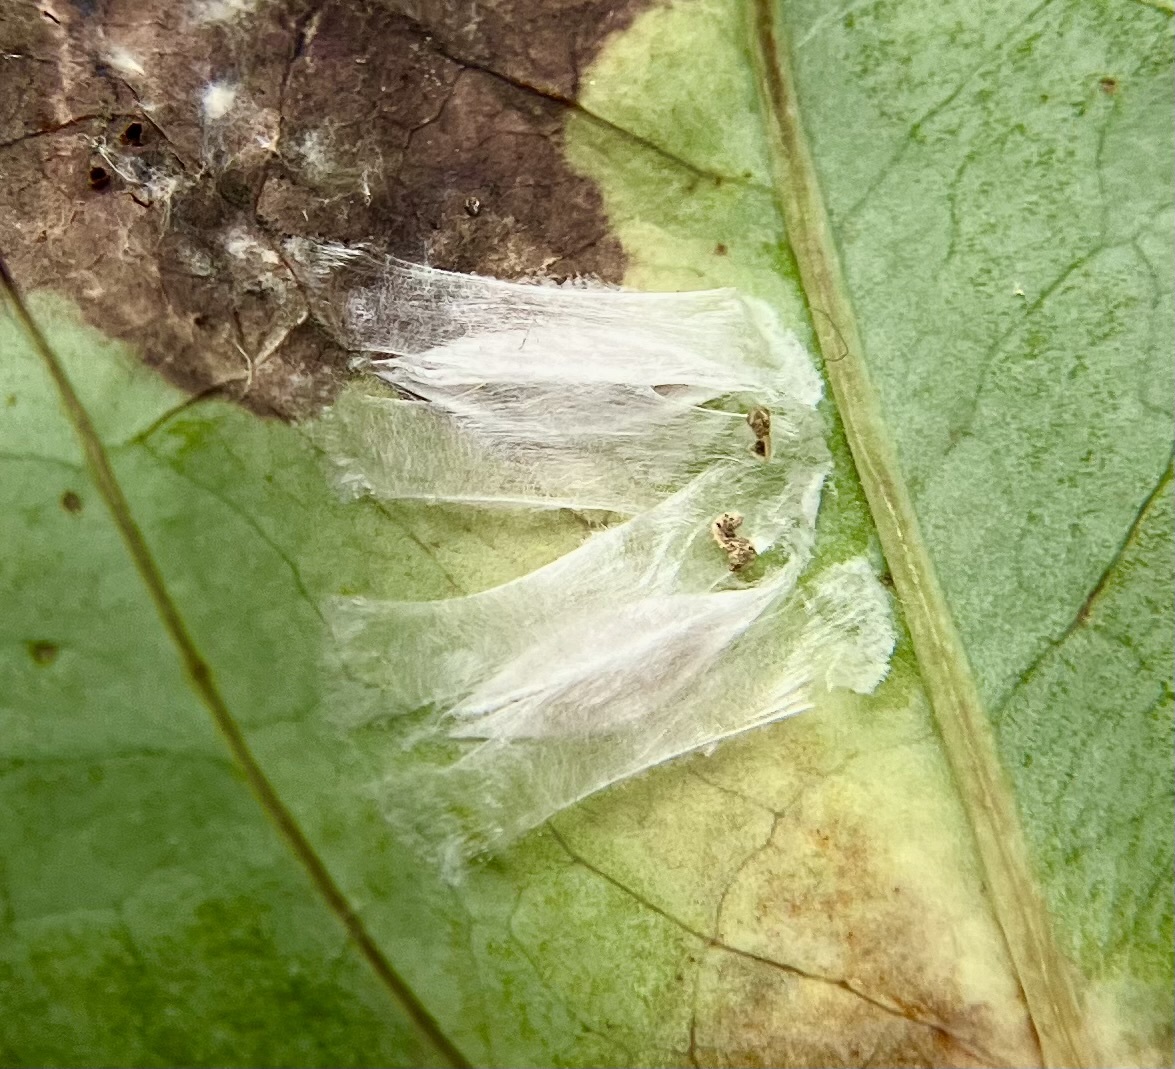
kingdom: Animalia
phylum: Arthropoda
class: Insecta
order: Lepidoptera
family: Lyonetiidae
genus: Leucoptera
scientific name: Leucoptera
